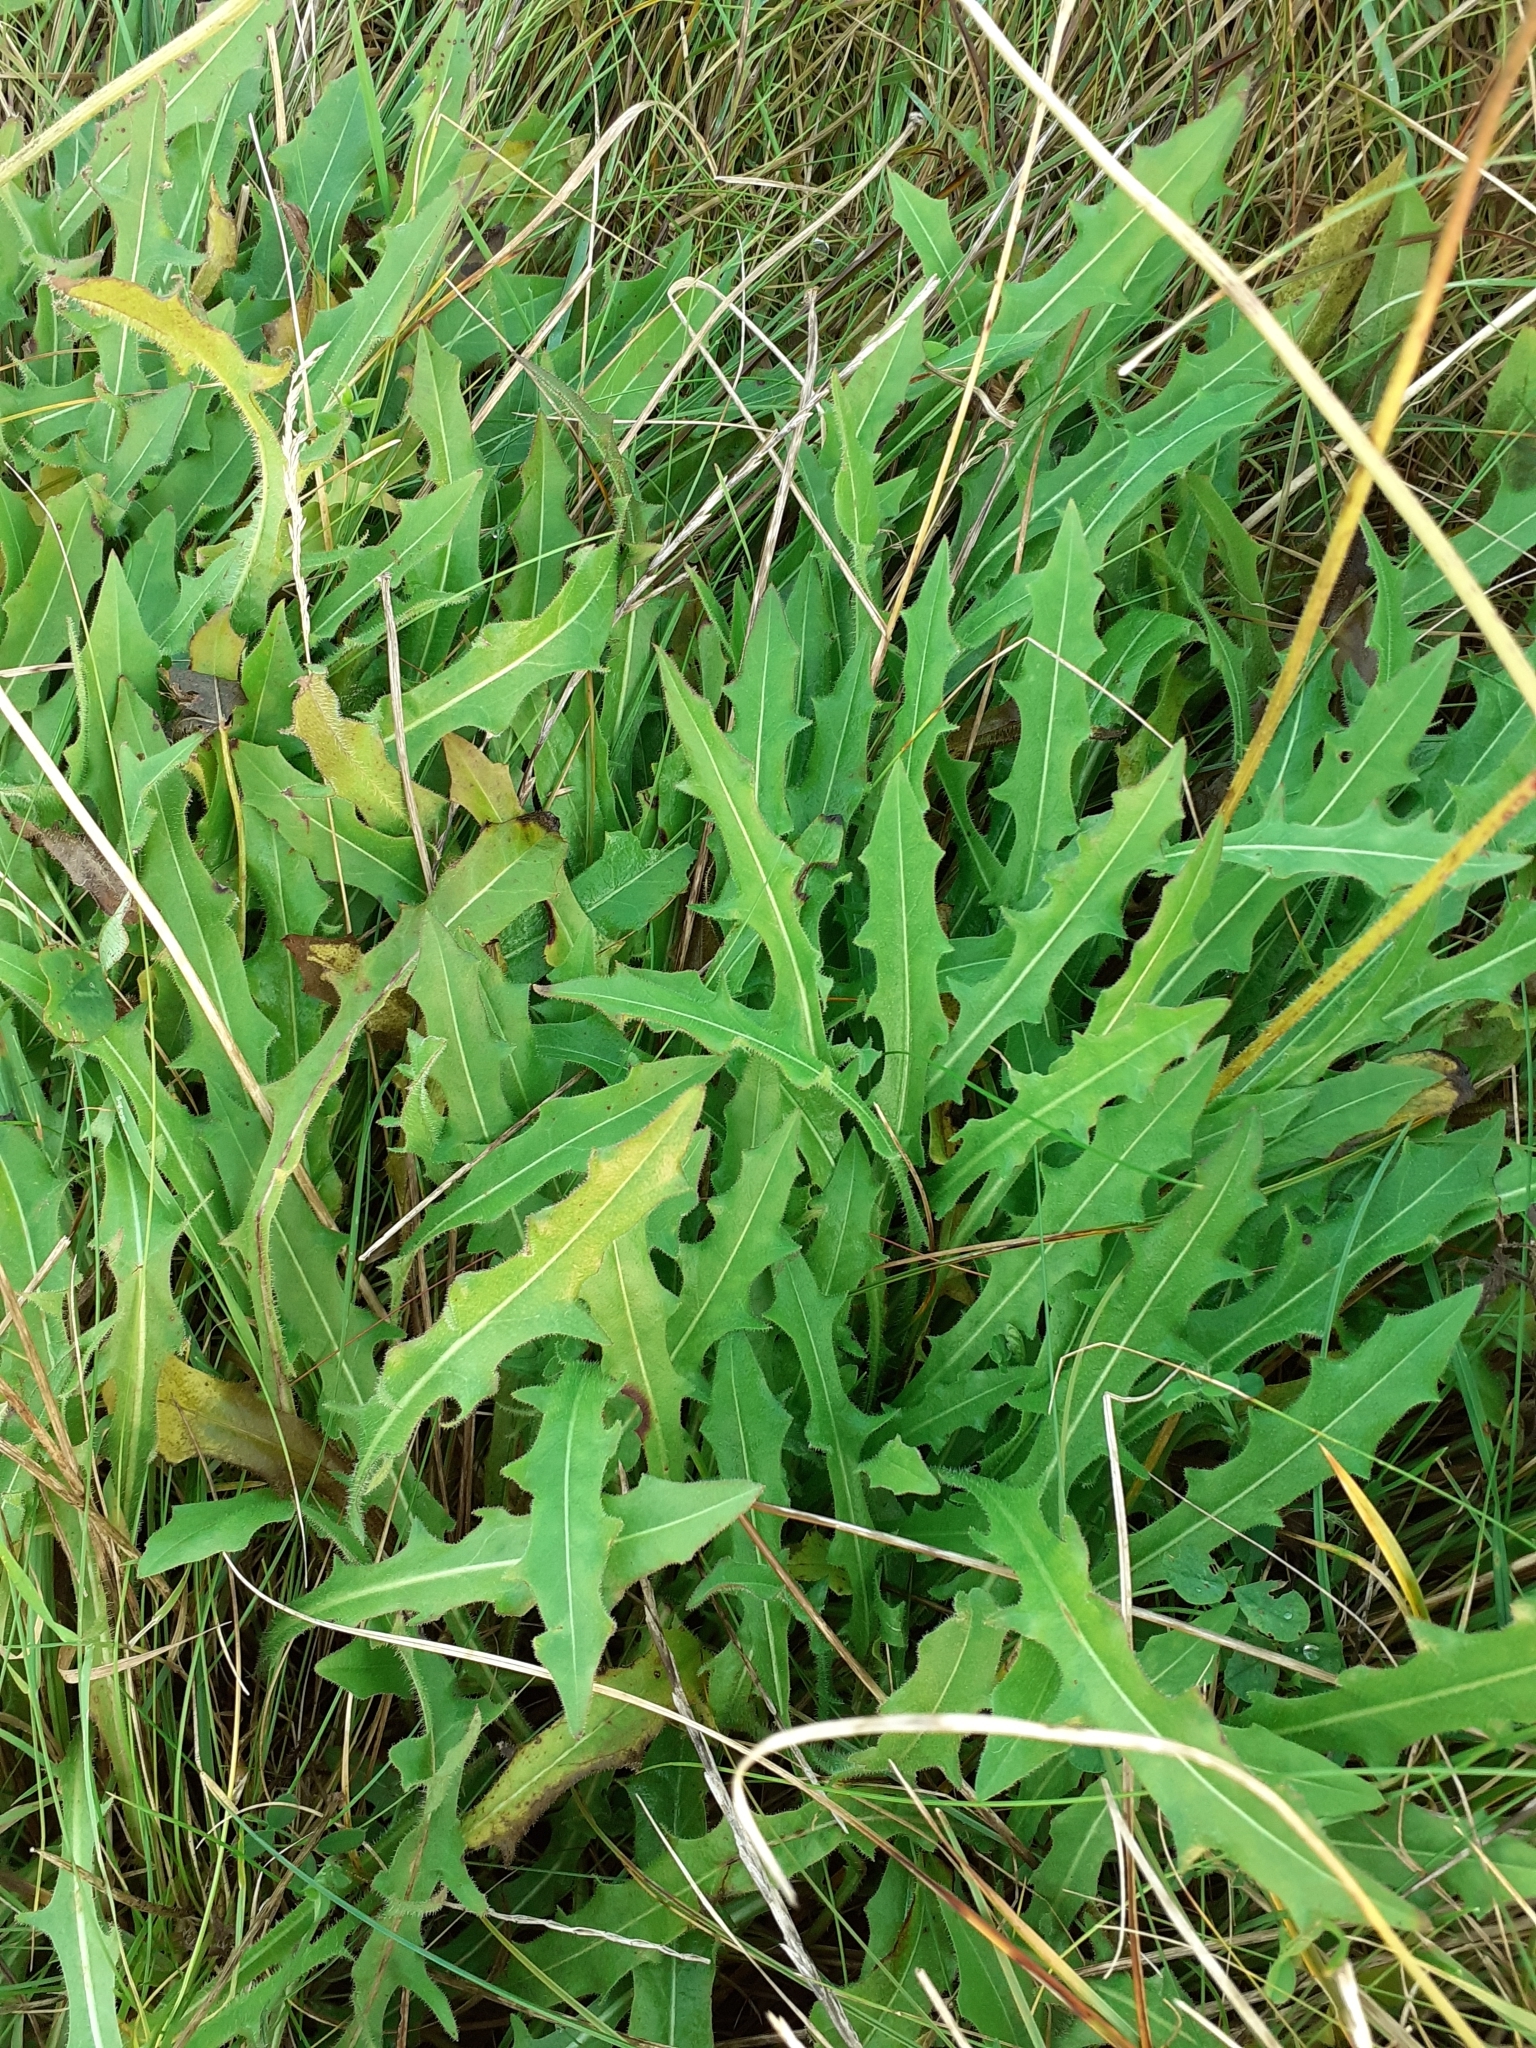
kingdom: Plantae
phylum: Tracheophyta
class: Magnoliopsida
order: Asterales
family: Asteraceae
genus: Sonchus
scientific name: Sonchus arvensis
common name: Perennial sow-thistle
